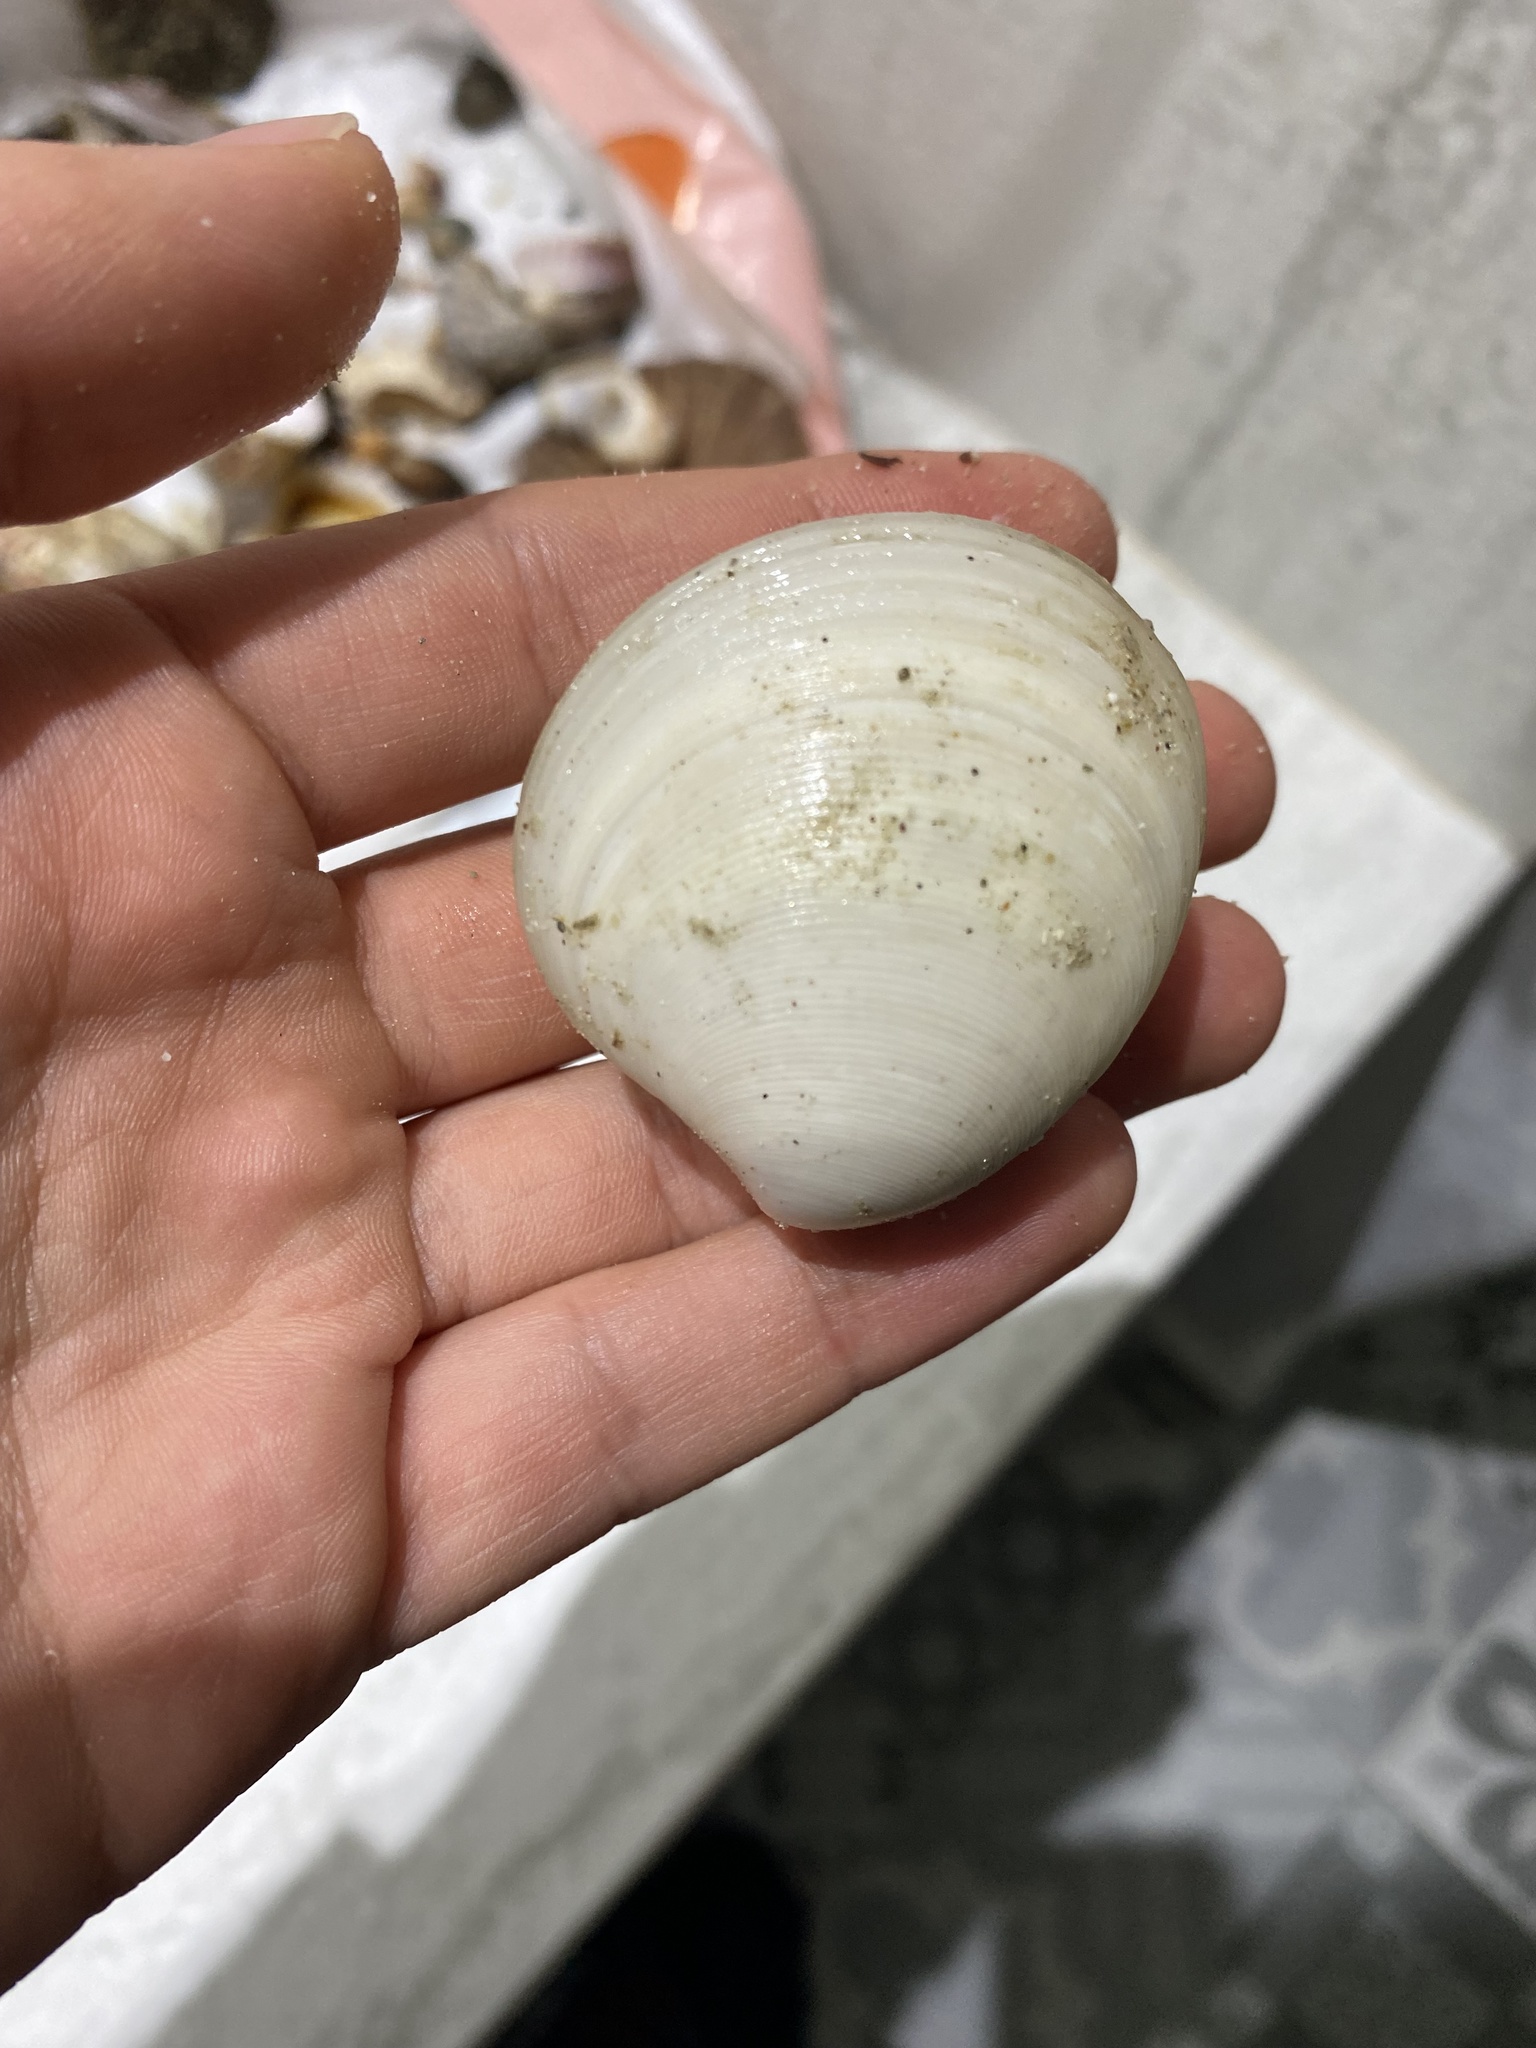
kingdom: Animalia
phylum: Mollusca
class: Bivalvia
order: Venerida
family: Veneridae
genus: Dosinia
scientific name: Dosinia dunkeri
